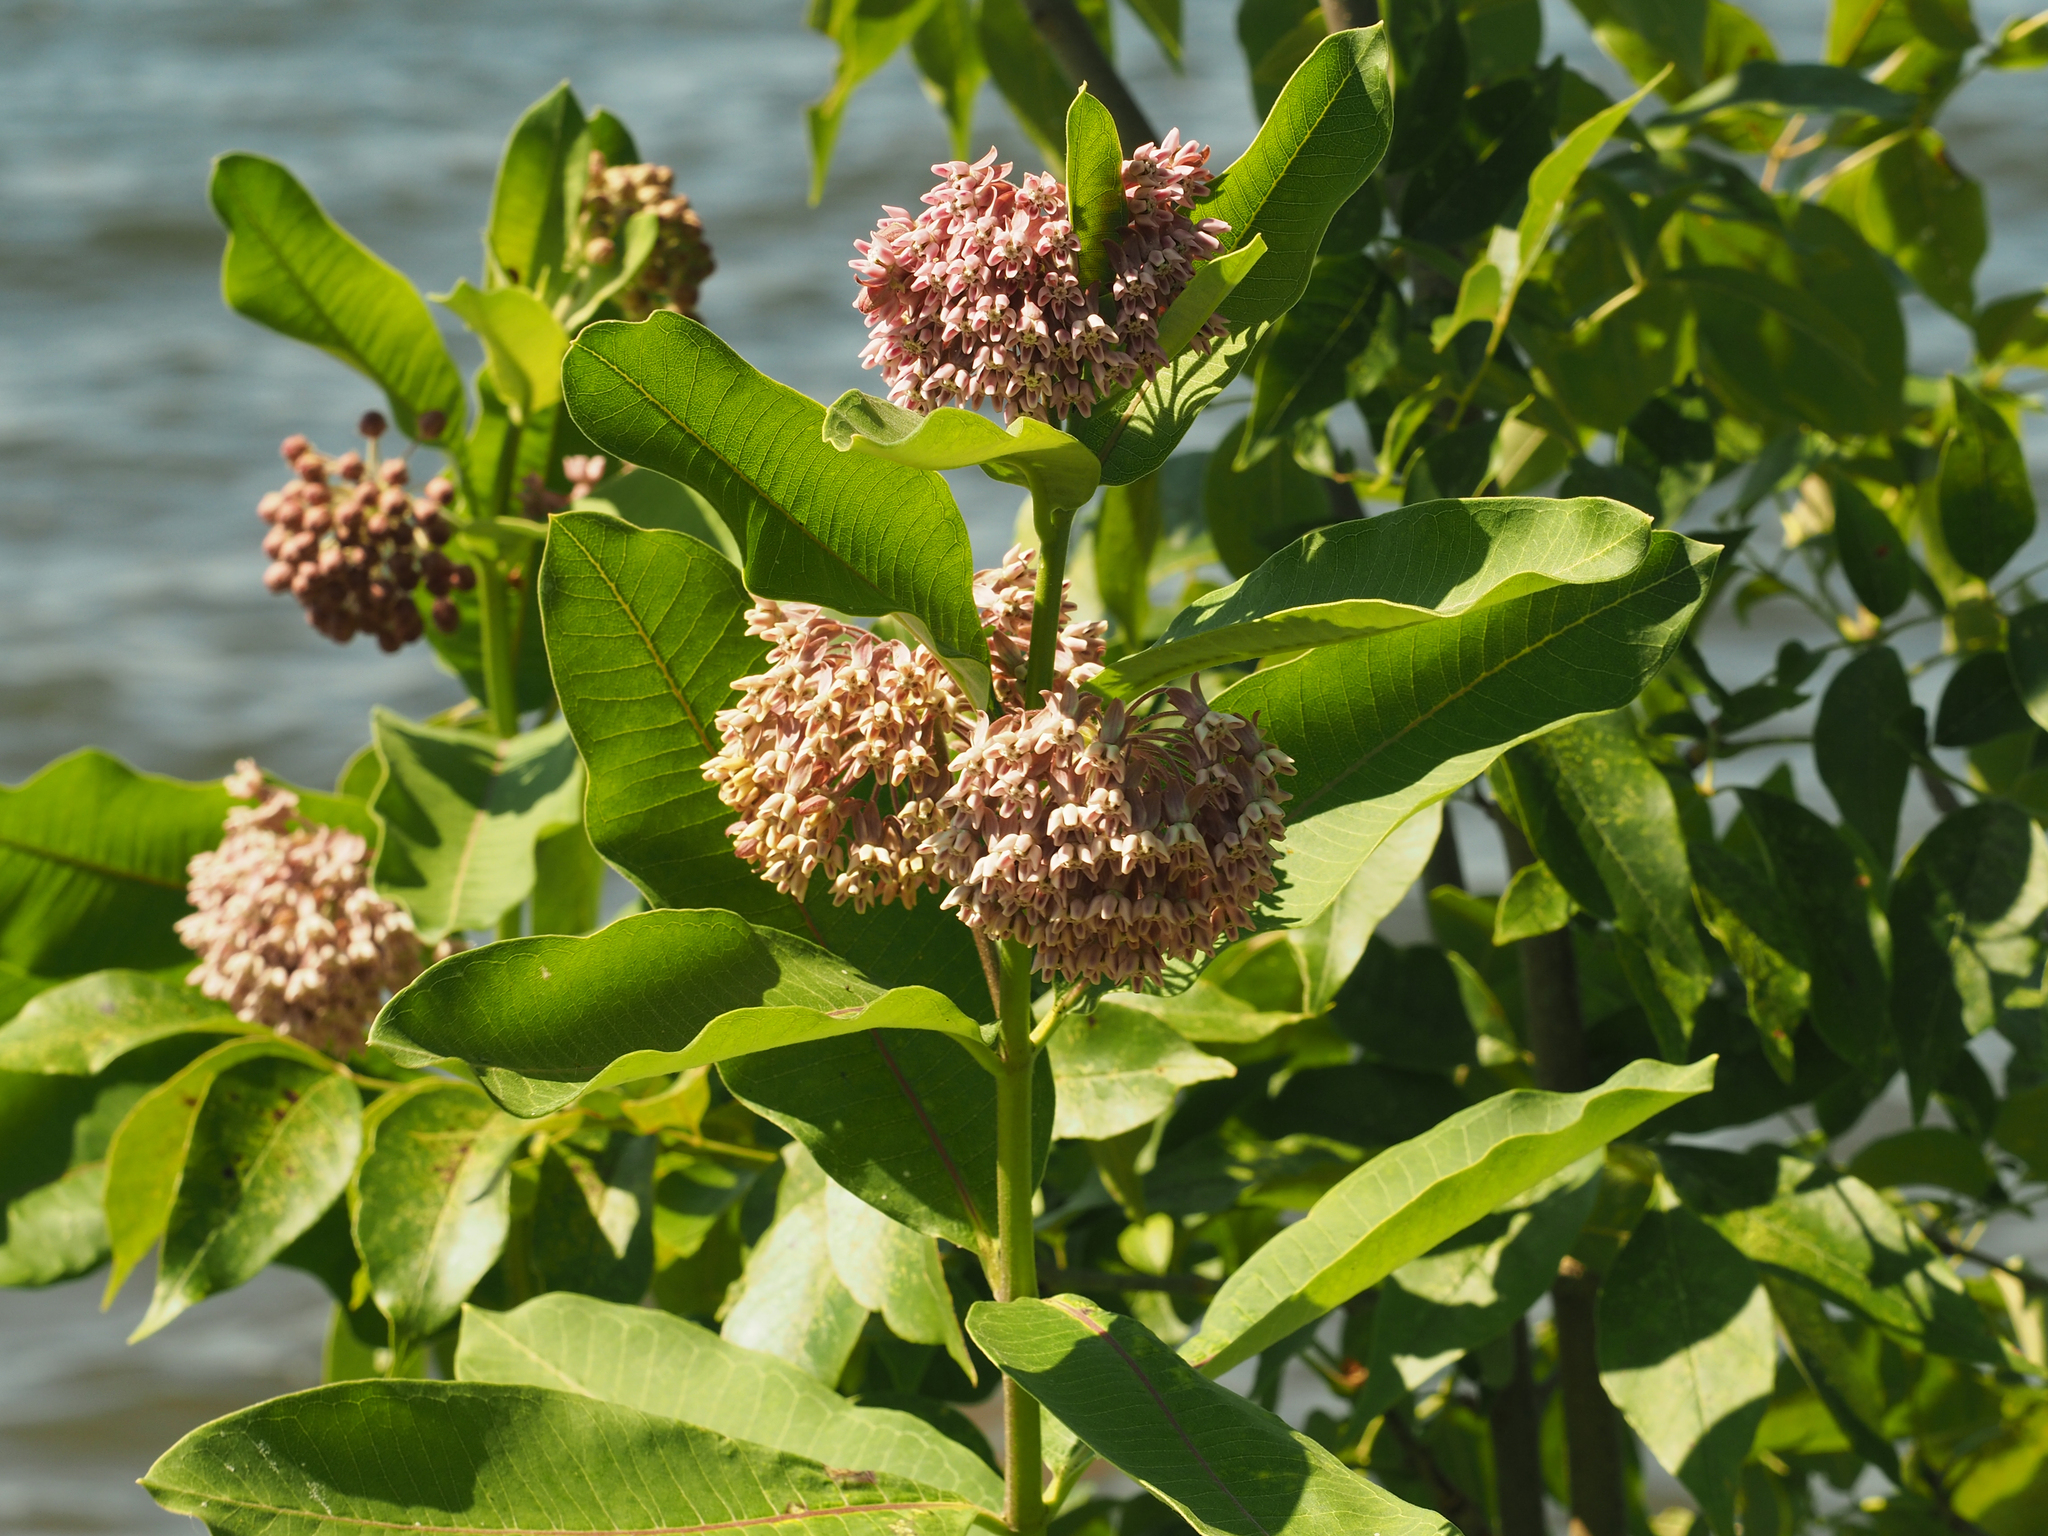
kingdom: Plantae
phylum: Tracheophyta
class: Magnoliopsida
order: Gentianales
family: Apocynaceae
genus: Asclepias
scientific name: Asclepias syriaca
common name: Common milkweed
